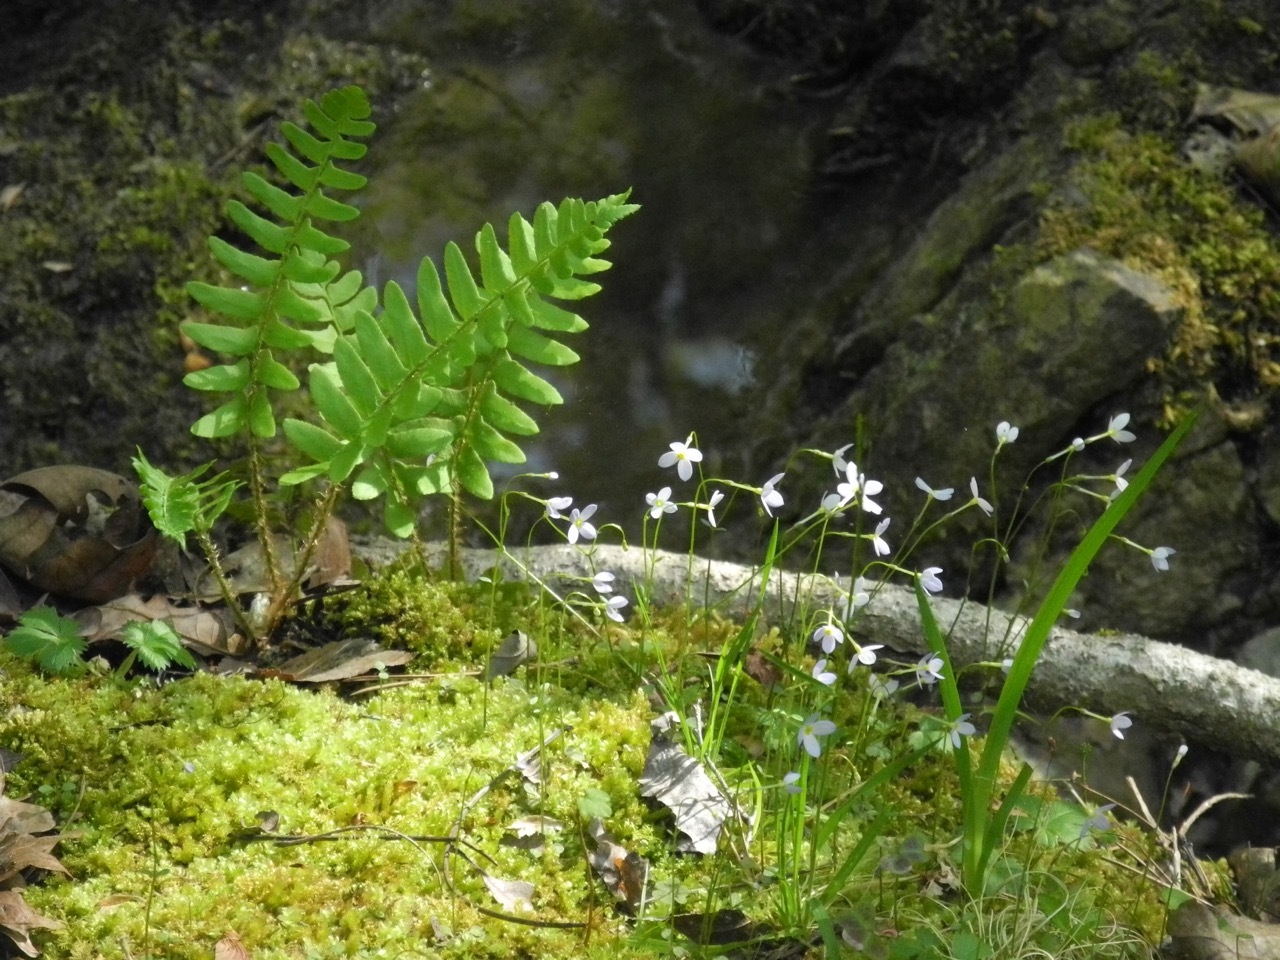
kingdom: Plantae
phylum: Tracheophyta
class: Magnoliopsida
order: Gentianales
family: Rubiaceae
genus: Houstonia
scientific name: Houstonia caerulea
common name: Bluets
